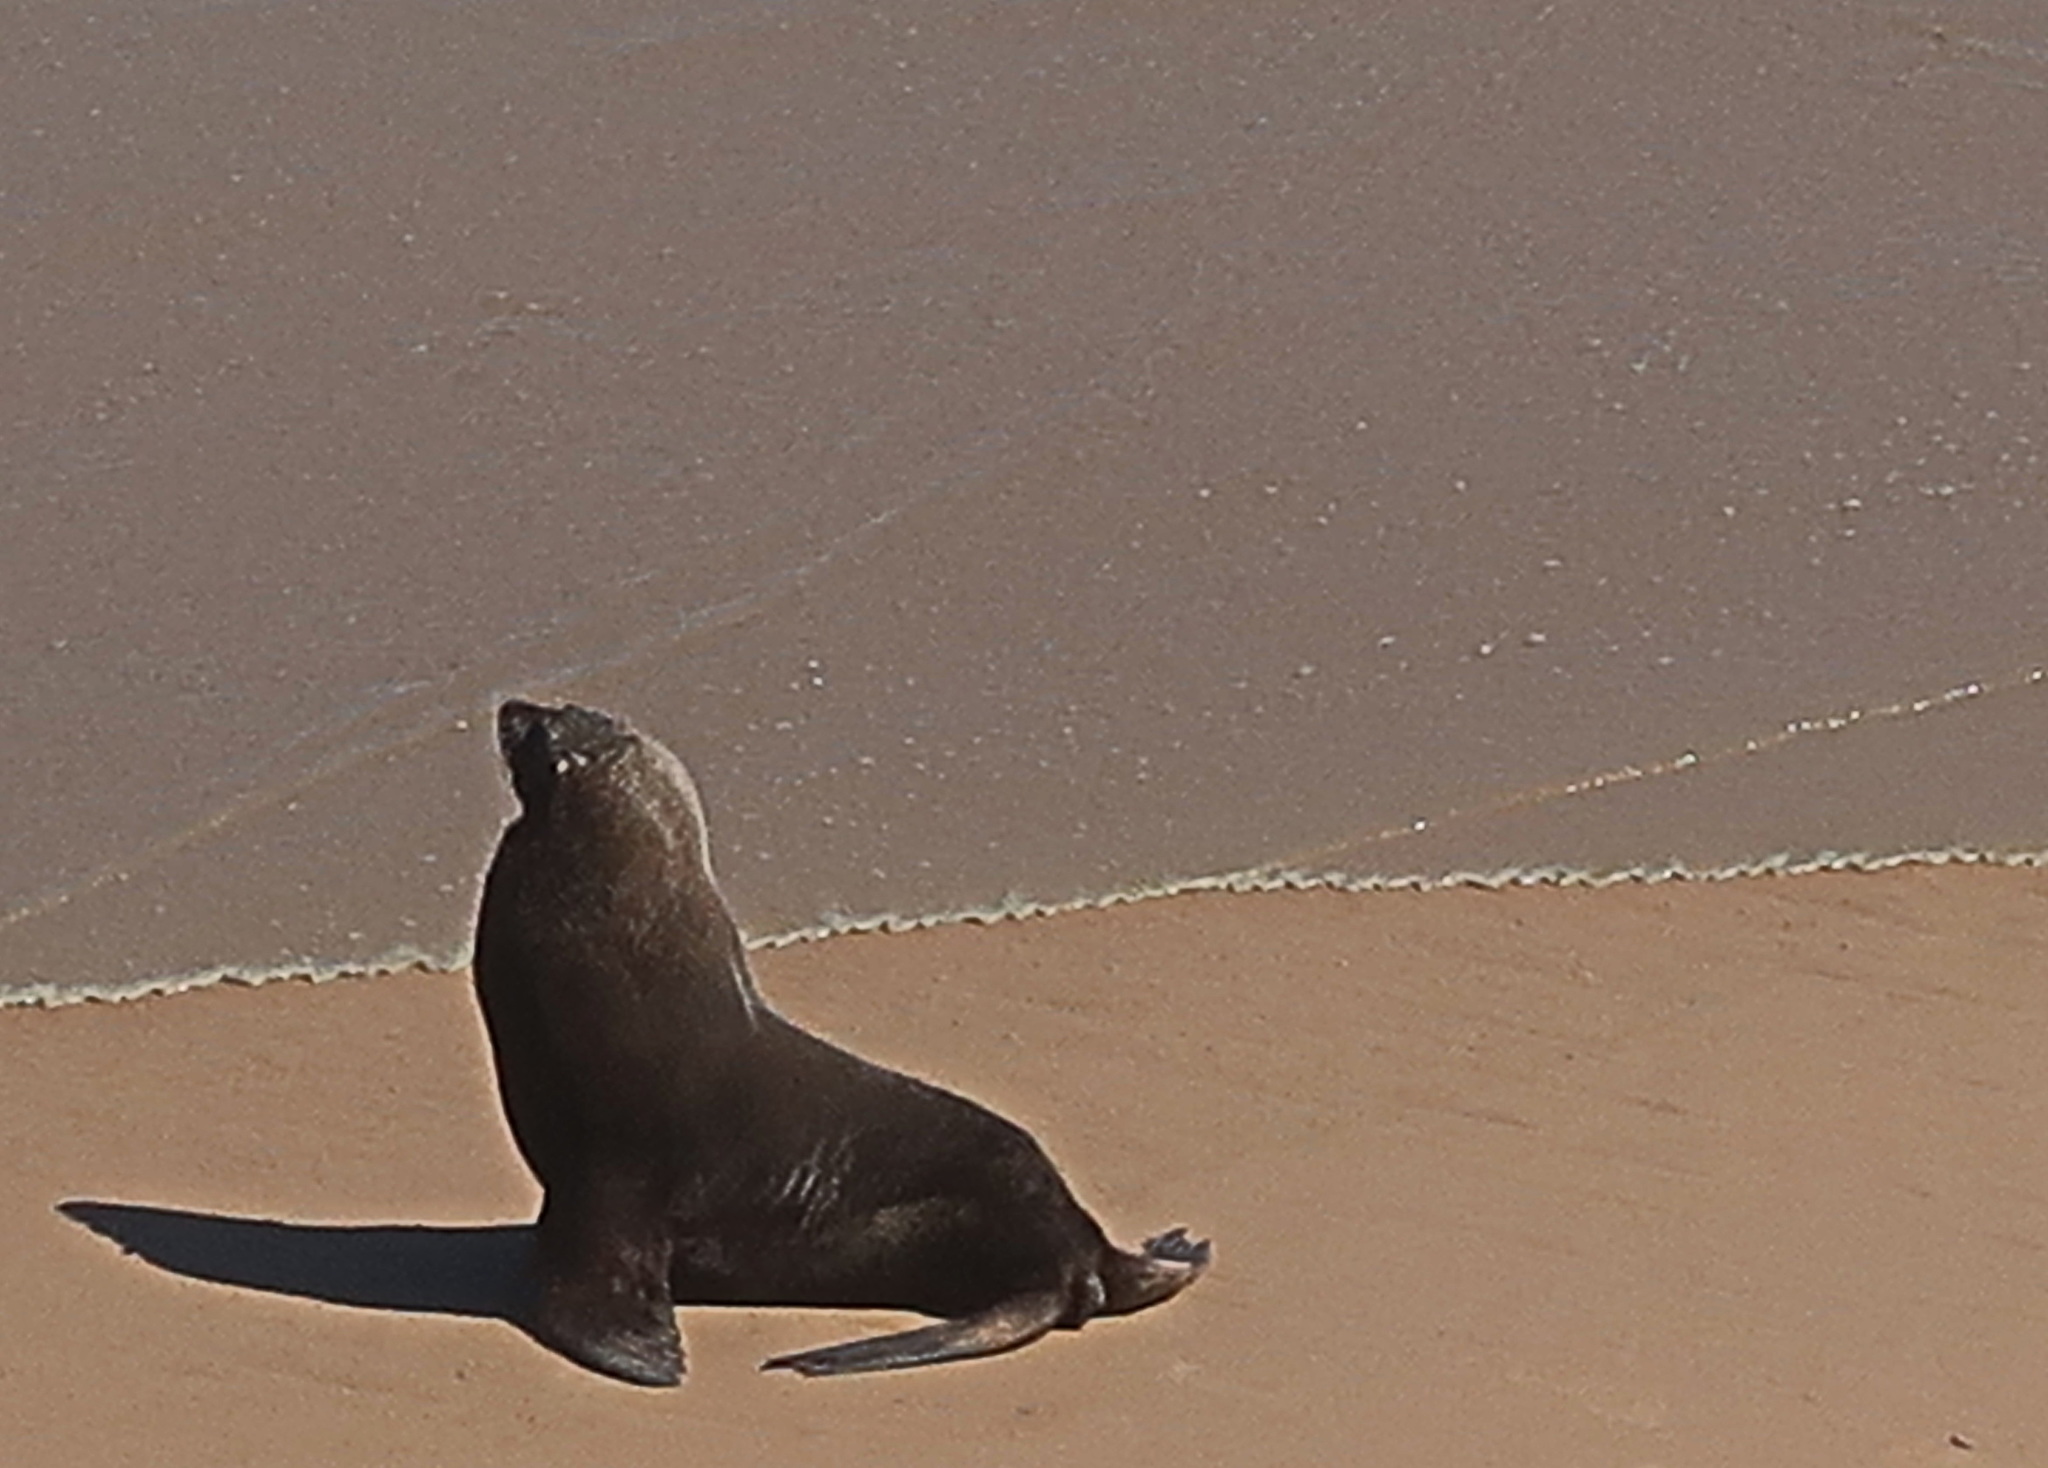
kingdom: Animalia
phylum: Chordata
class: Mammalia
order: Carnivora
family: Otariidae
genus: Arctocephalus
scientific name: Arctocephalus pusillus
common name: Brown fur seal
